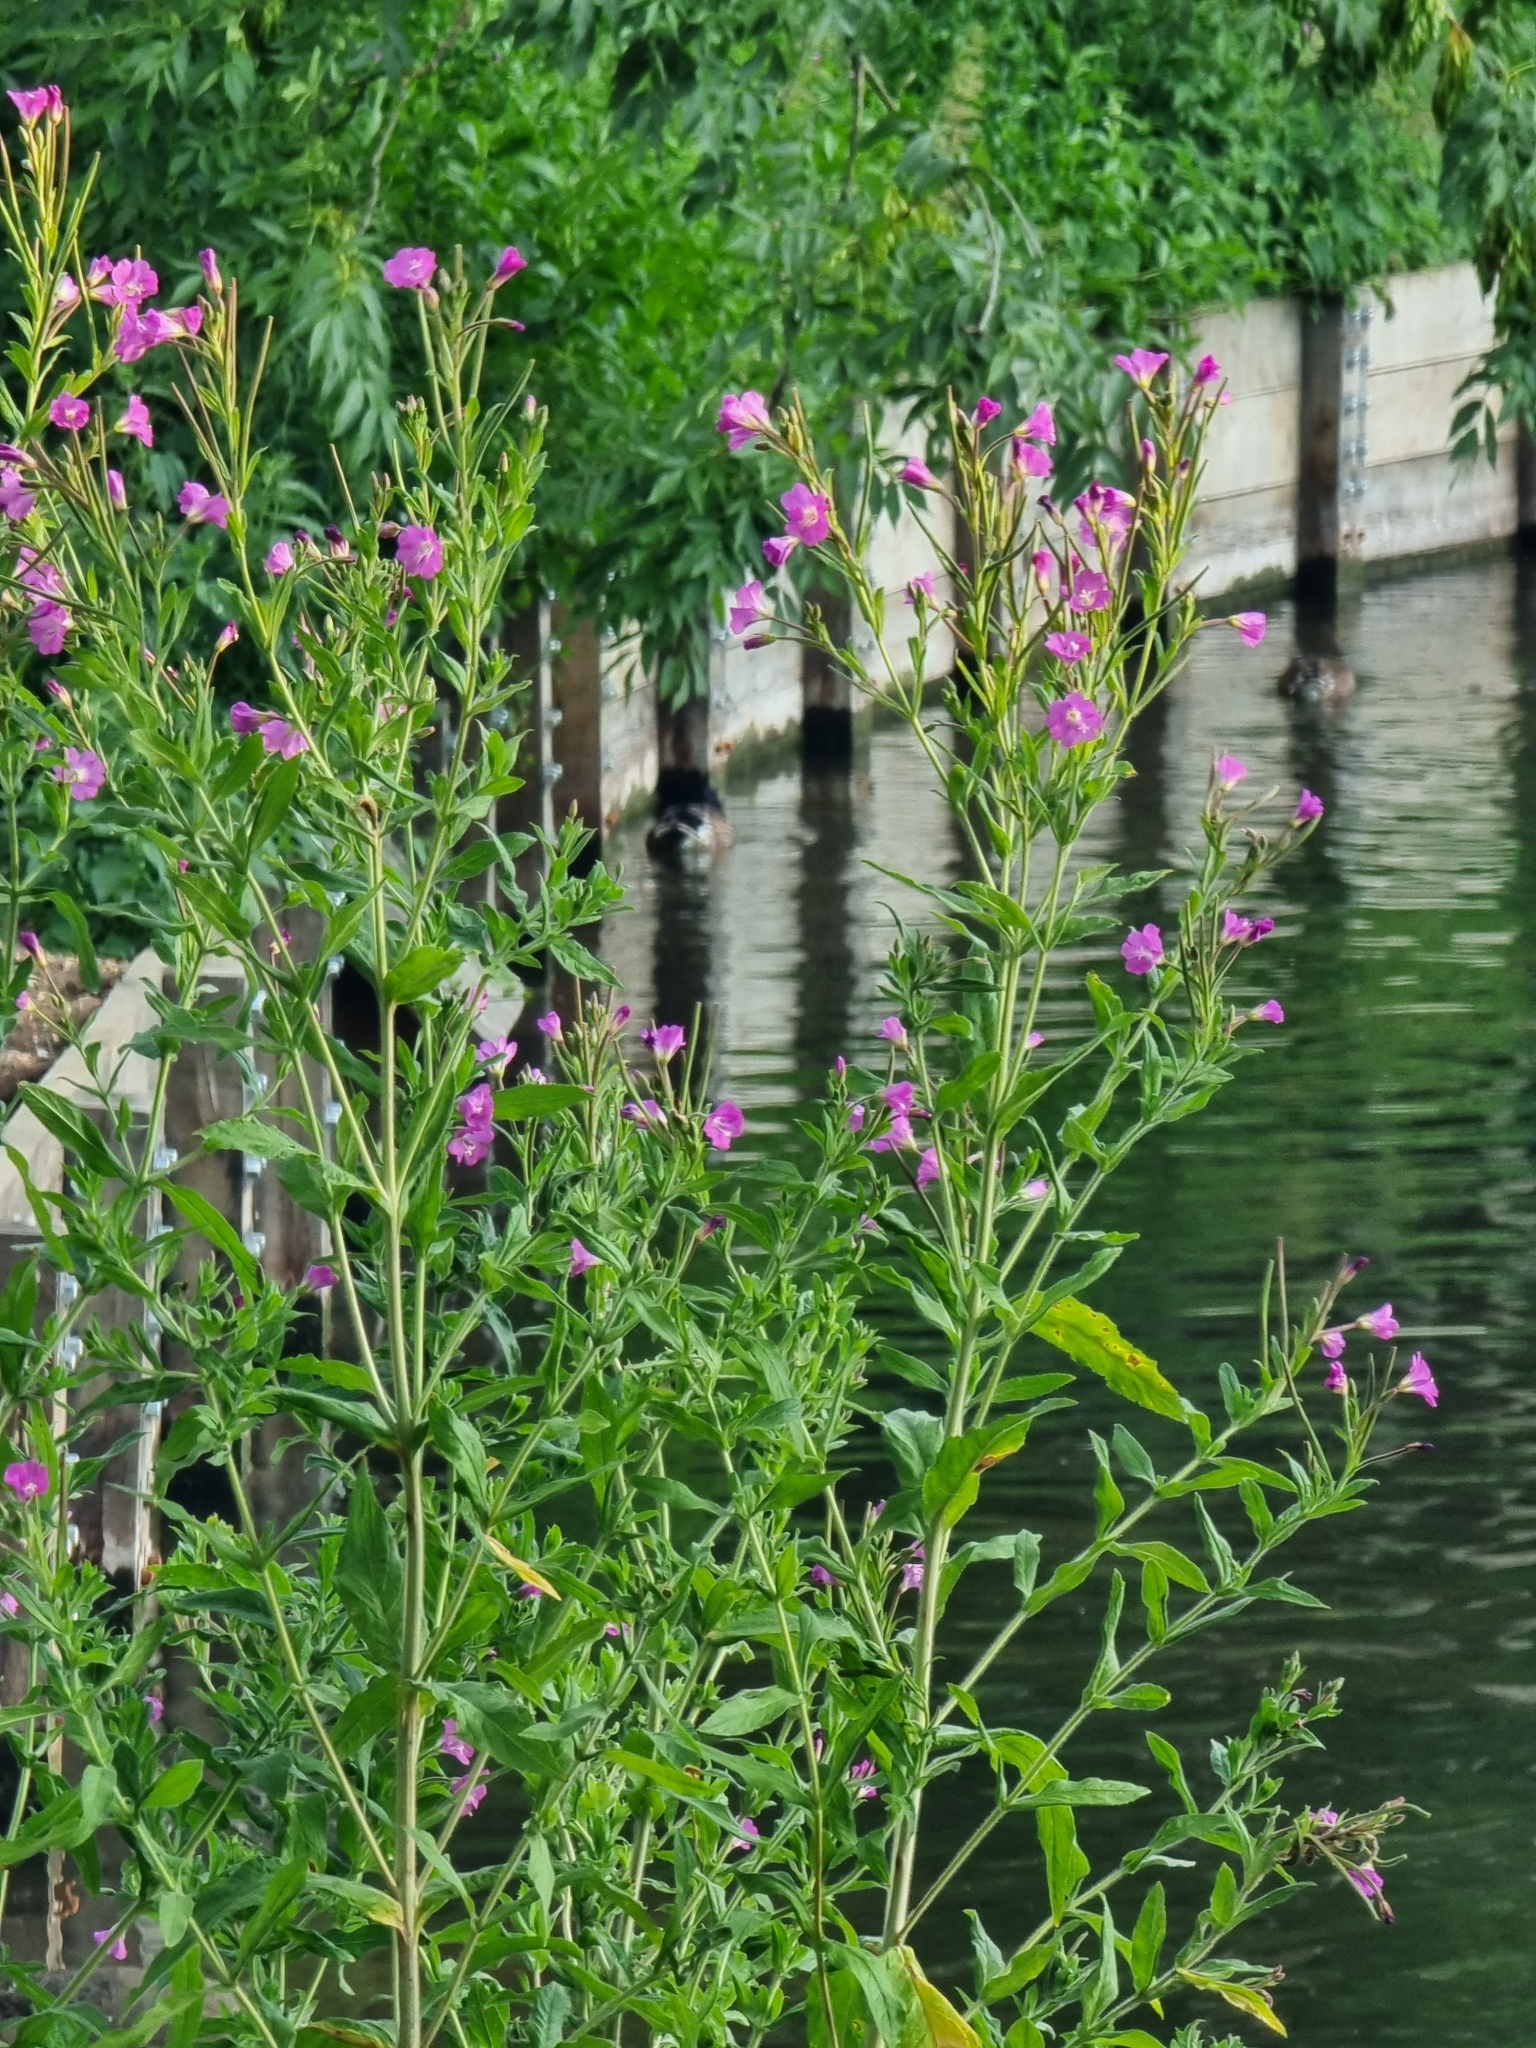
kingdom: Plantae
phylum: Tracheophyta
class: Magnoliopsida
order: Myrtales
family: Onagraceae
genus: Epilobium
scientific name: Epilobium hirsutum
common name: Great willowherb
